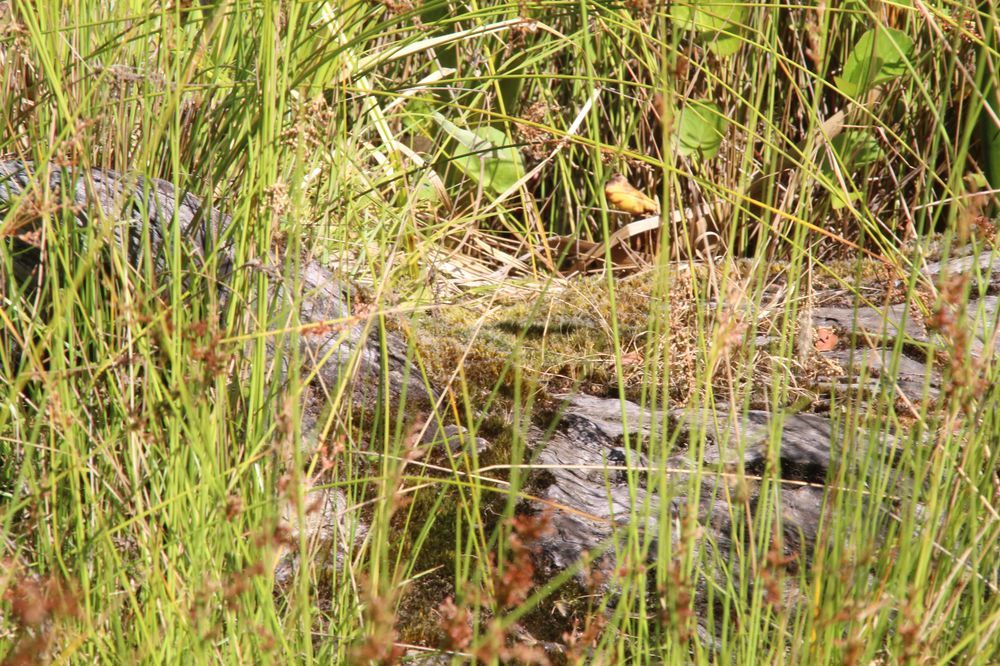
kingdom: Plantae
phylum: Bryophyta
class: Bryopsida
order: Dicranales
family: Leucobryaceae
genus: Campylopus
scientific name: Campylopus introflexus
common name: Heath star moss
